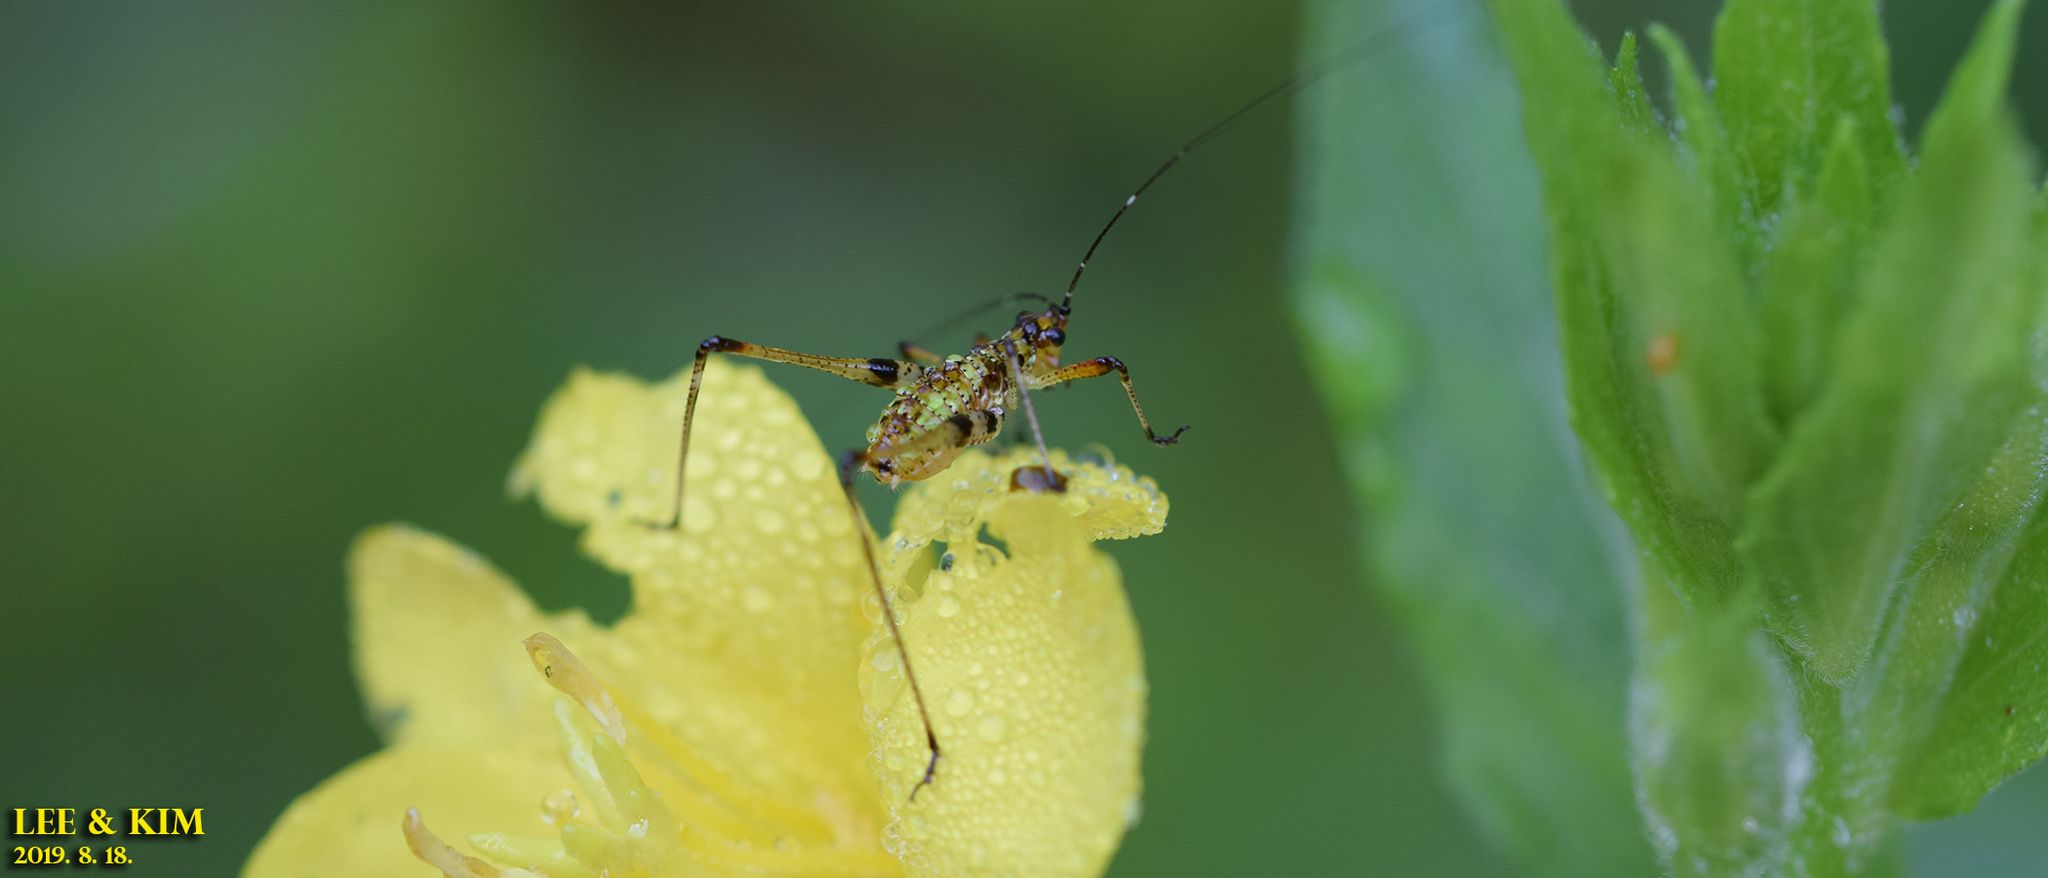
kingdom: Animalia
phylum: Arthropoda
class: Insecta
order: Orthoptera
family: Tettigoniidae
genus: Phaneroptera
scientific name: Phaneroptera nigroantennata
